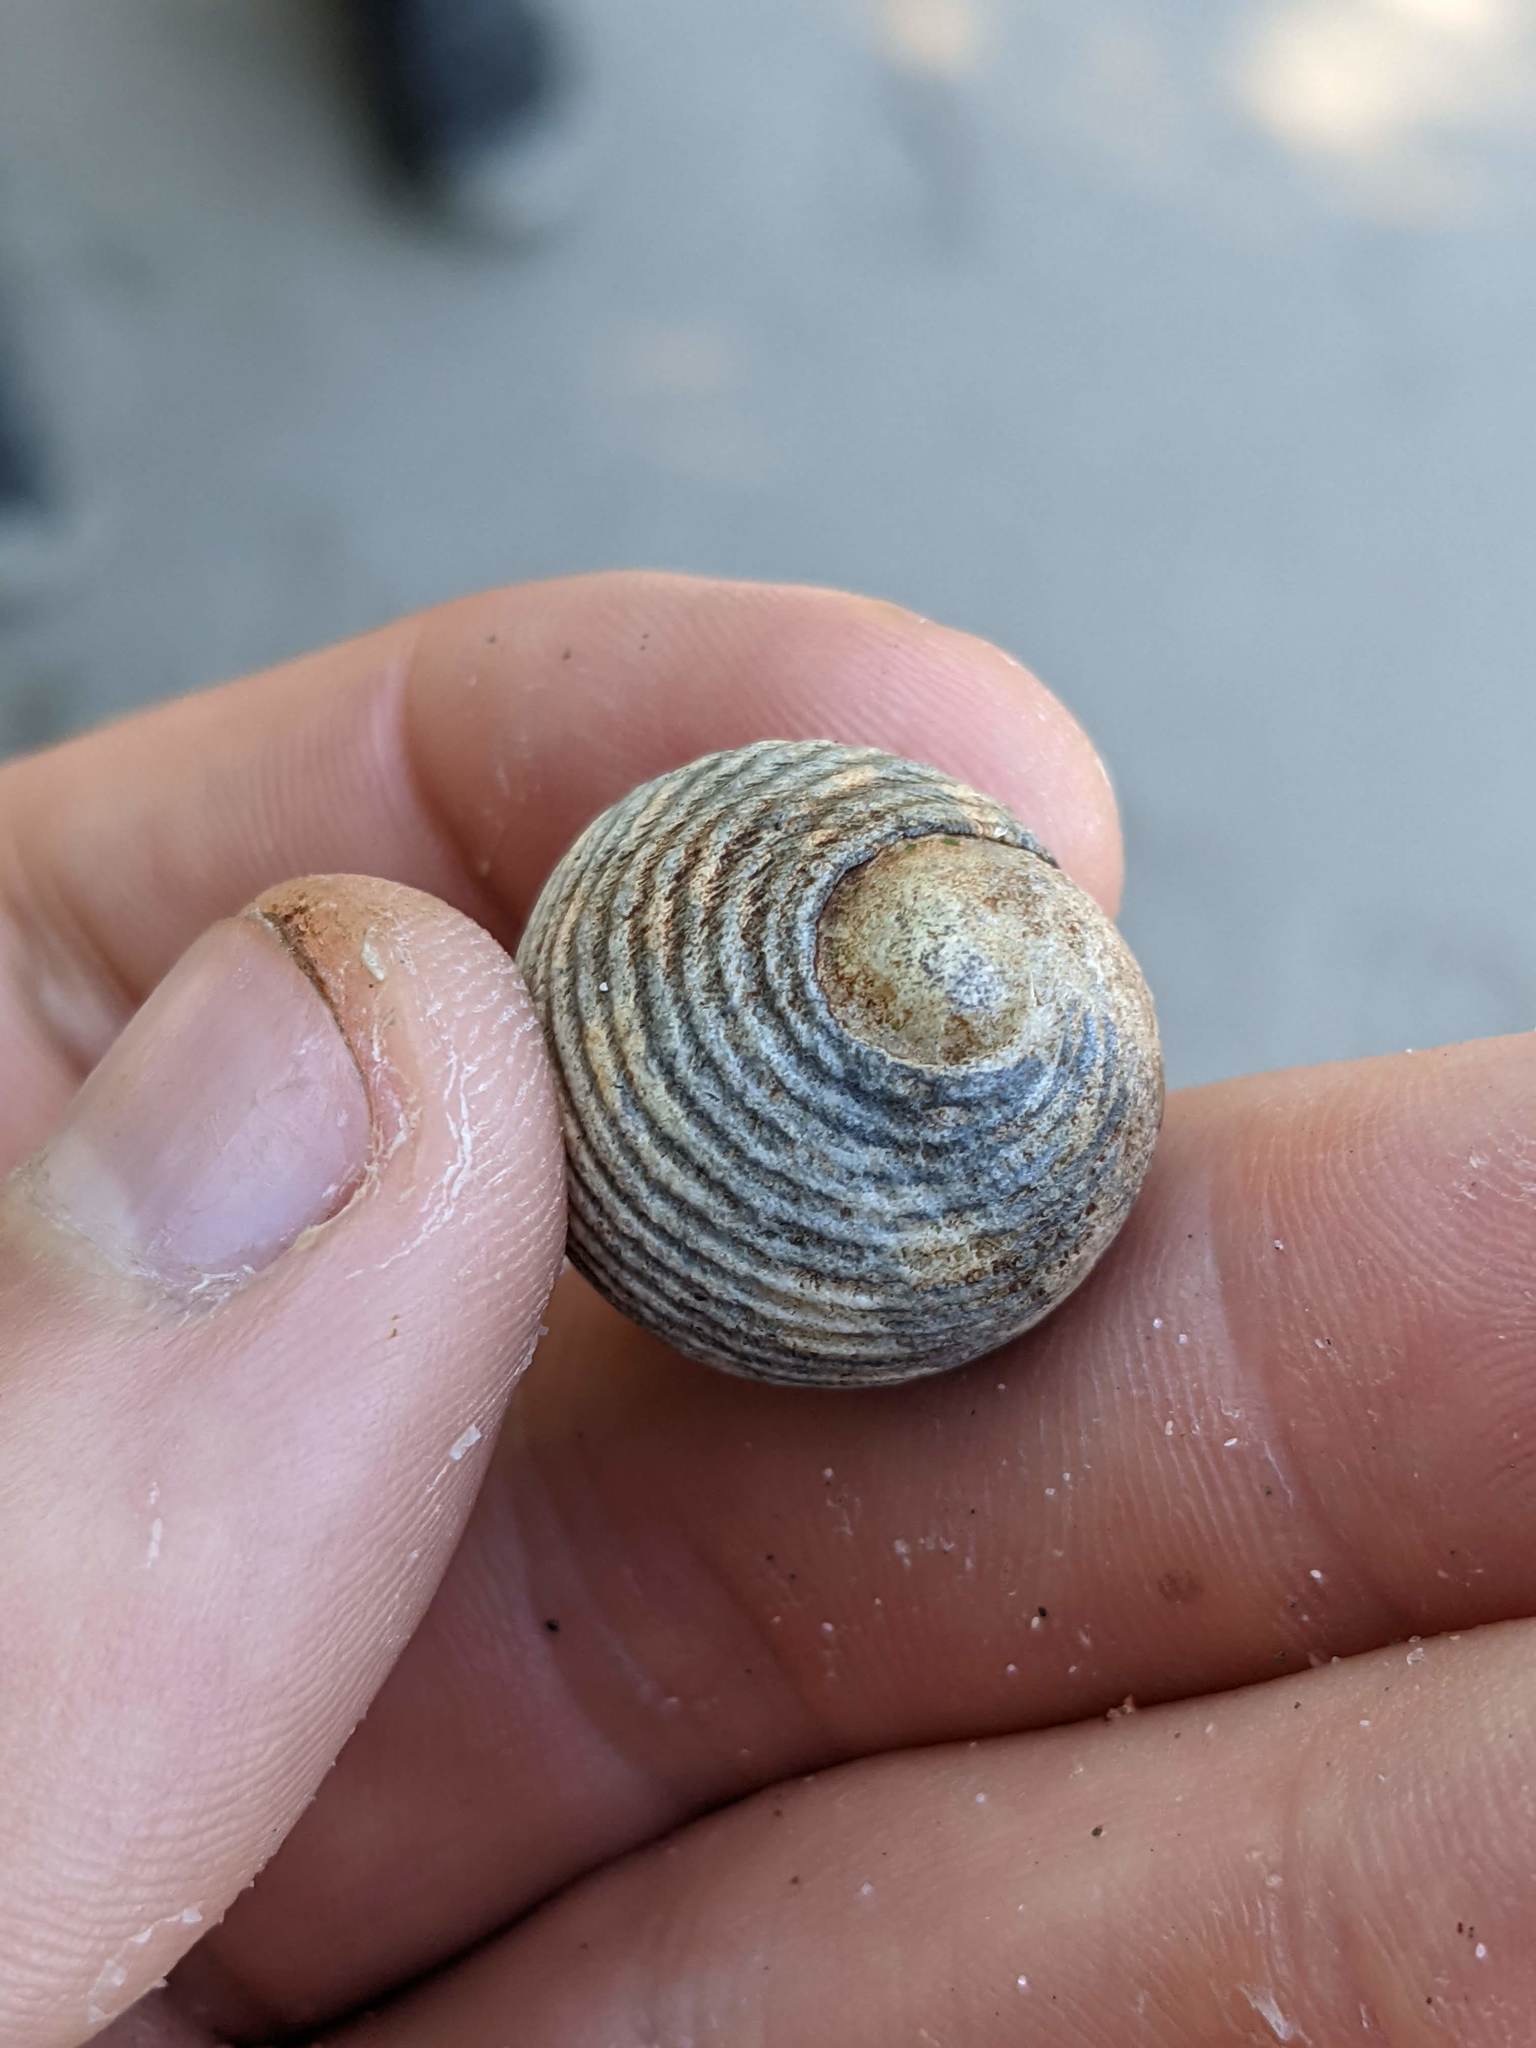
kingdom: Animalia
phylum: Mollusca
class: Gastropoda
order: Cycloneritida
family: Neritidae
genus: Nerita
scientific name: Nerita scabricosta
